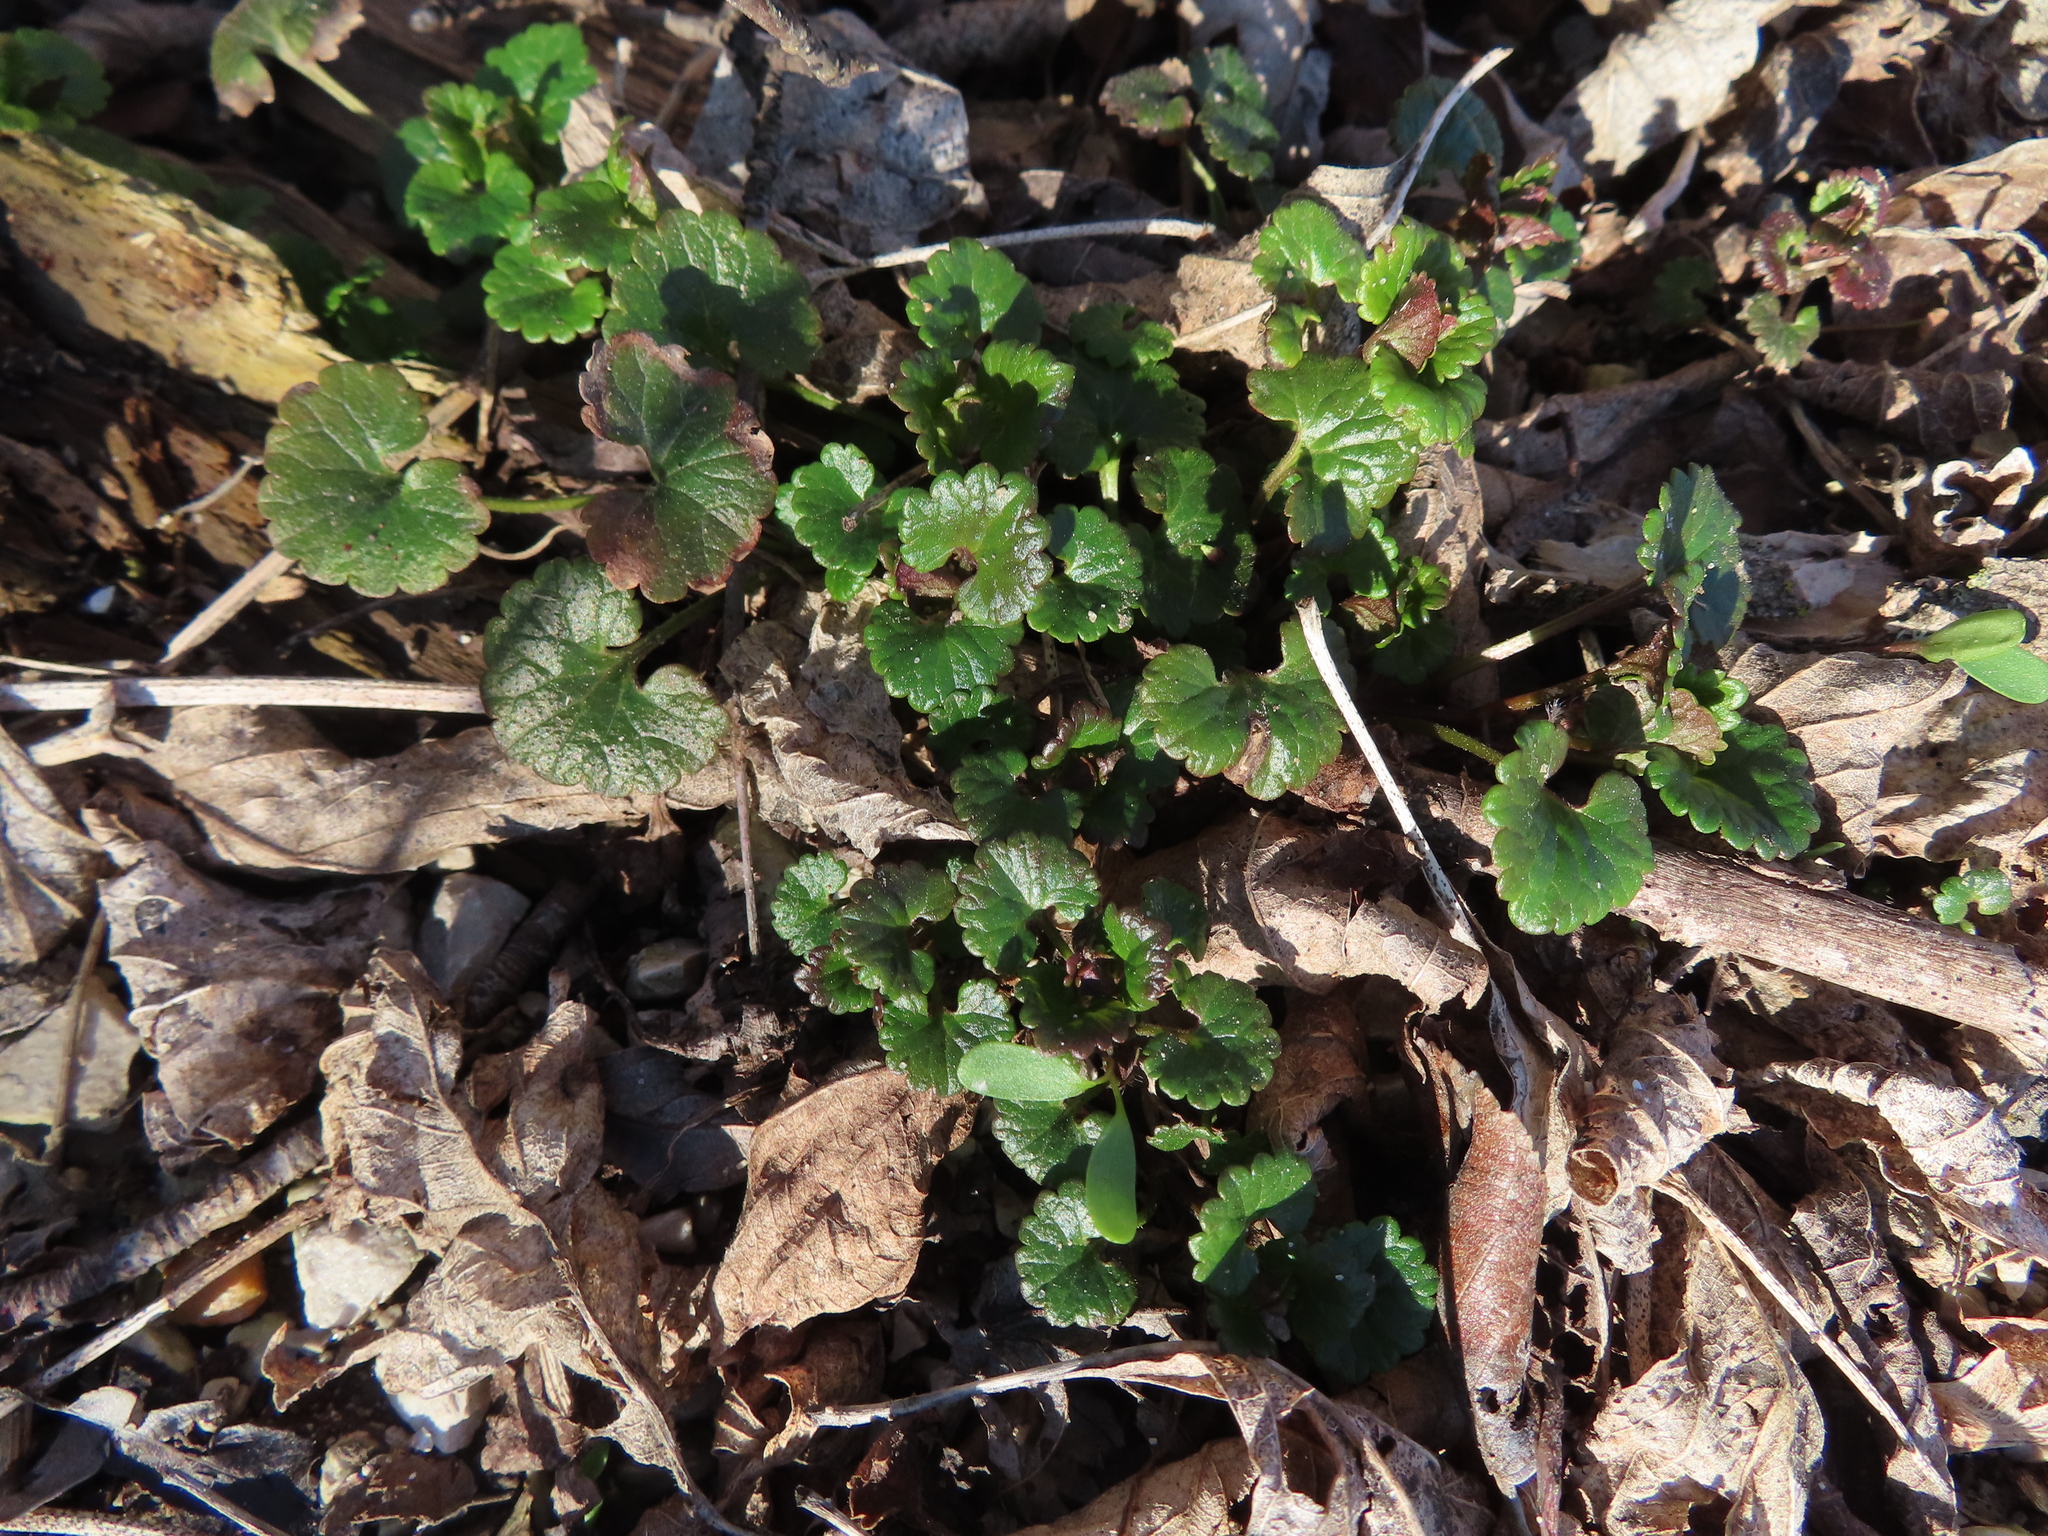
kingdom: Plantae
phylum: Tracheophyta
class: Magnoliopsida
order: Lamiales
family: Lamiaceae
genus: Glechoma
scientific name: Glechoma hederacea
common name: Ground ivy
